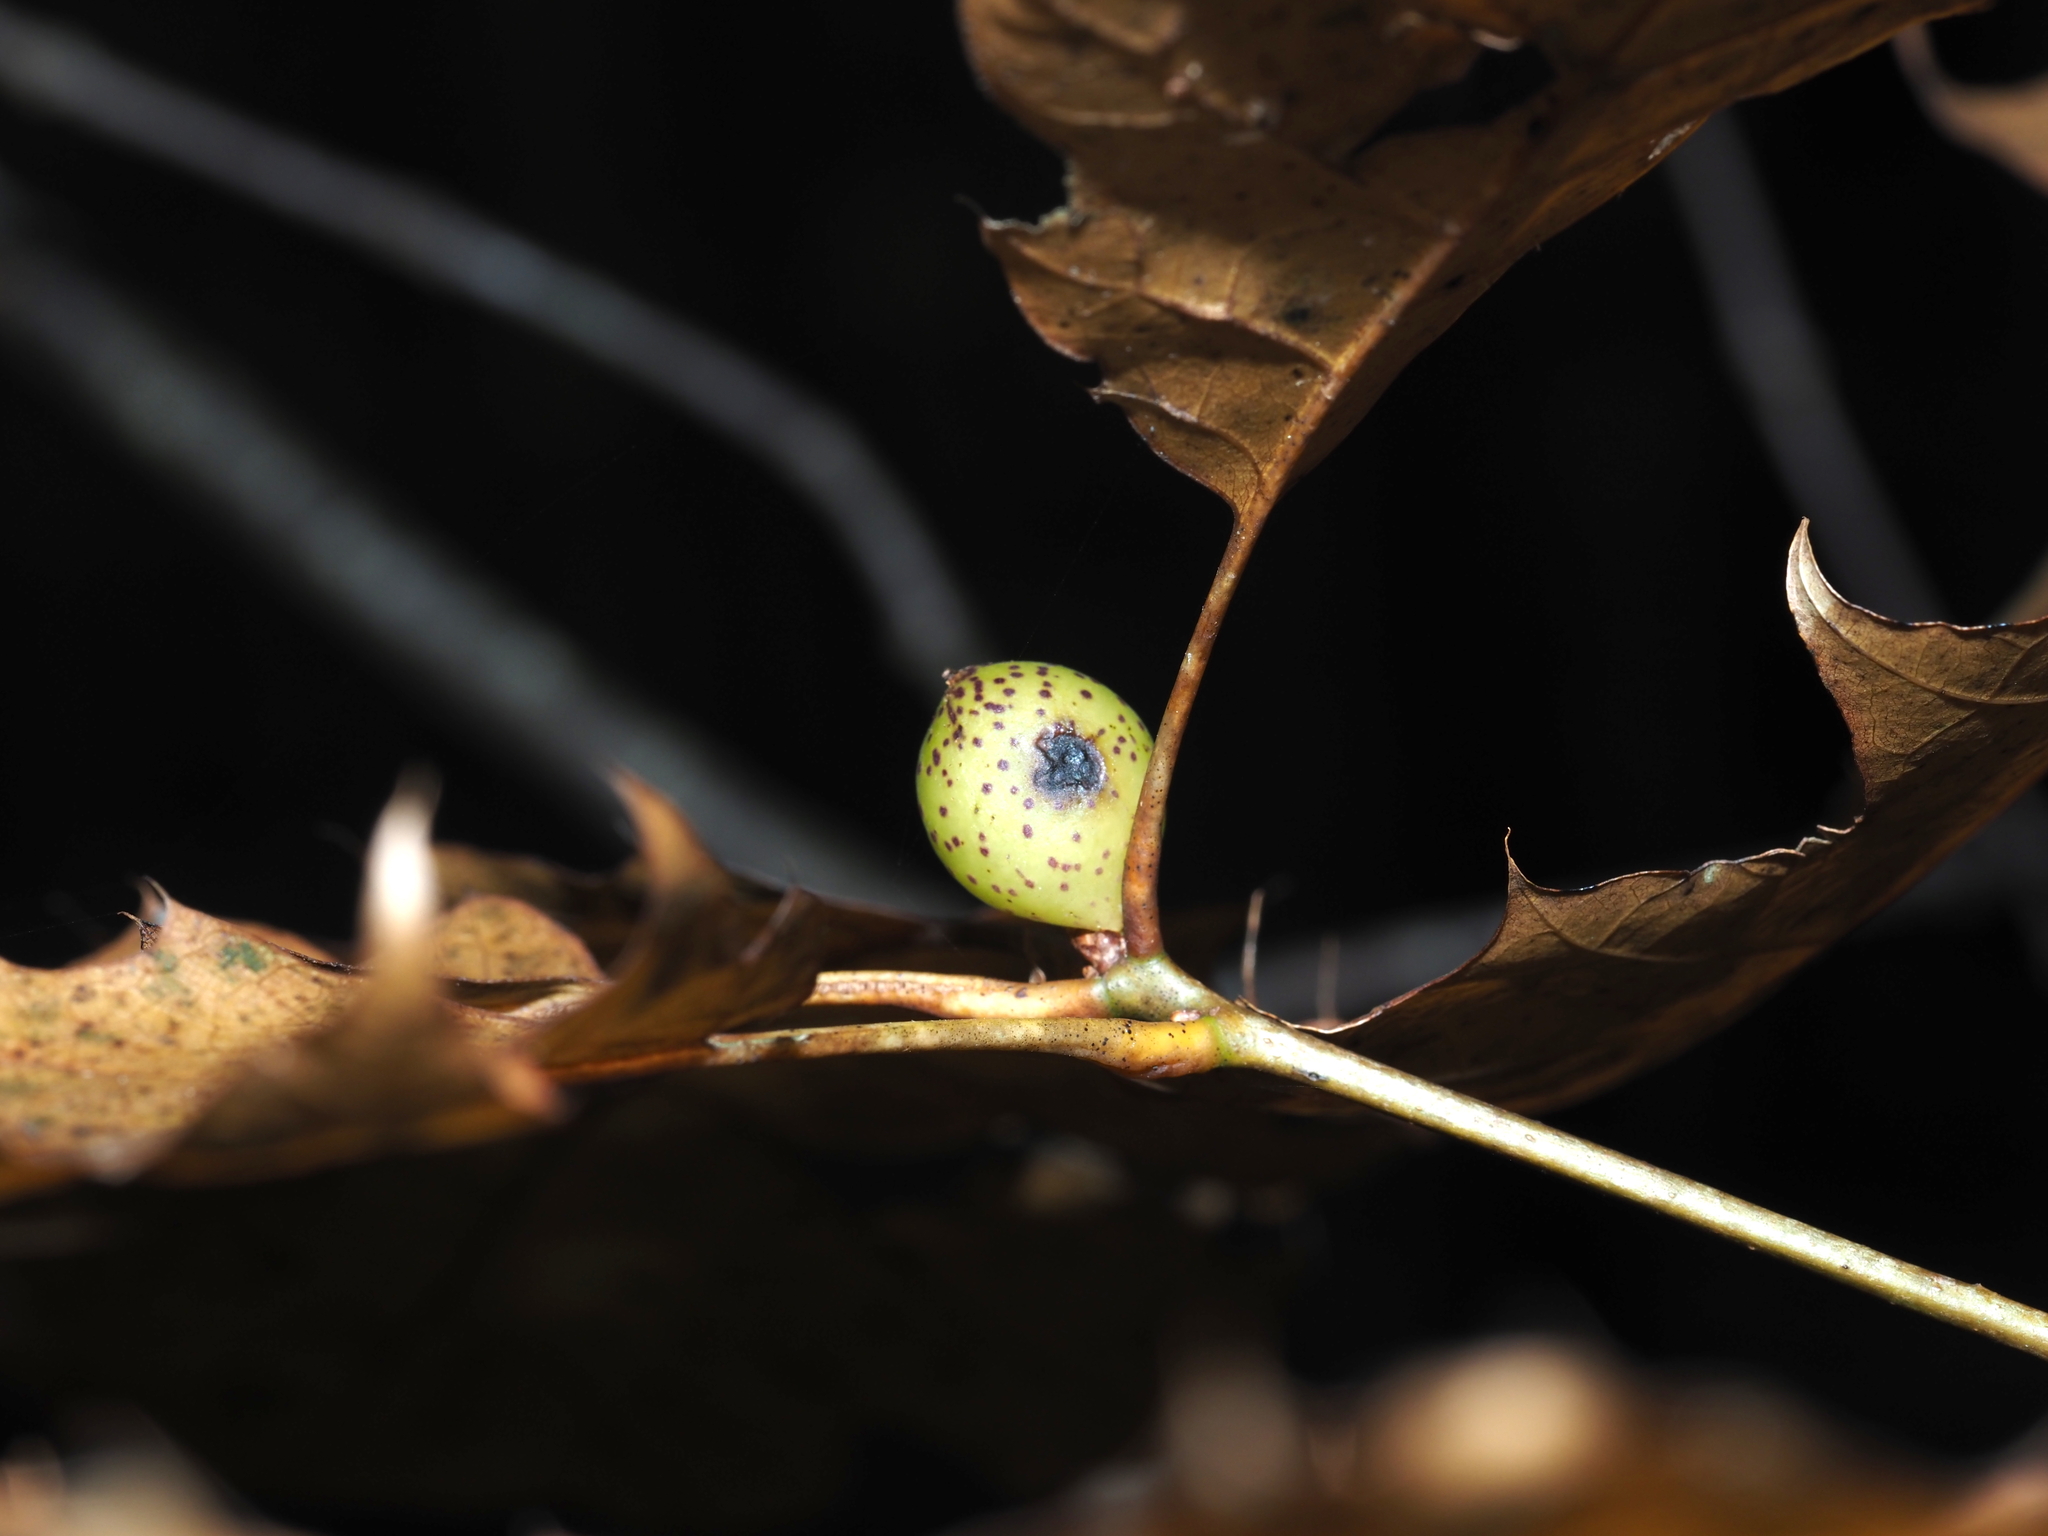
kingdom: Animalia
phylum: Arthropoda
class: Insecta
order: Hymenoptera
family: Cynipidae
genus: Amphibolips
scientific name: Amphibolips
